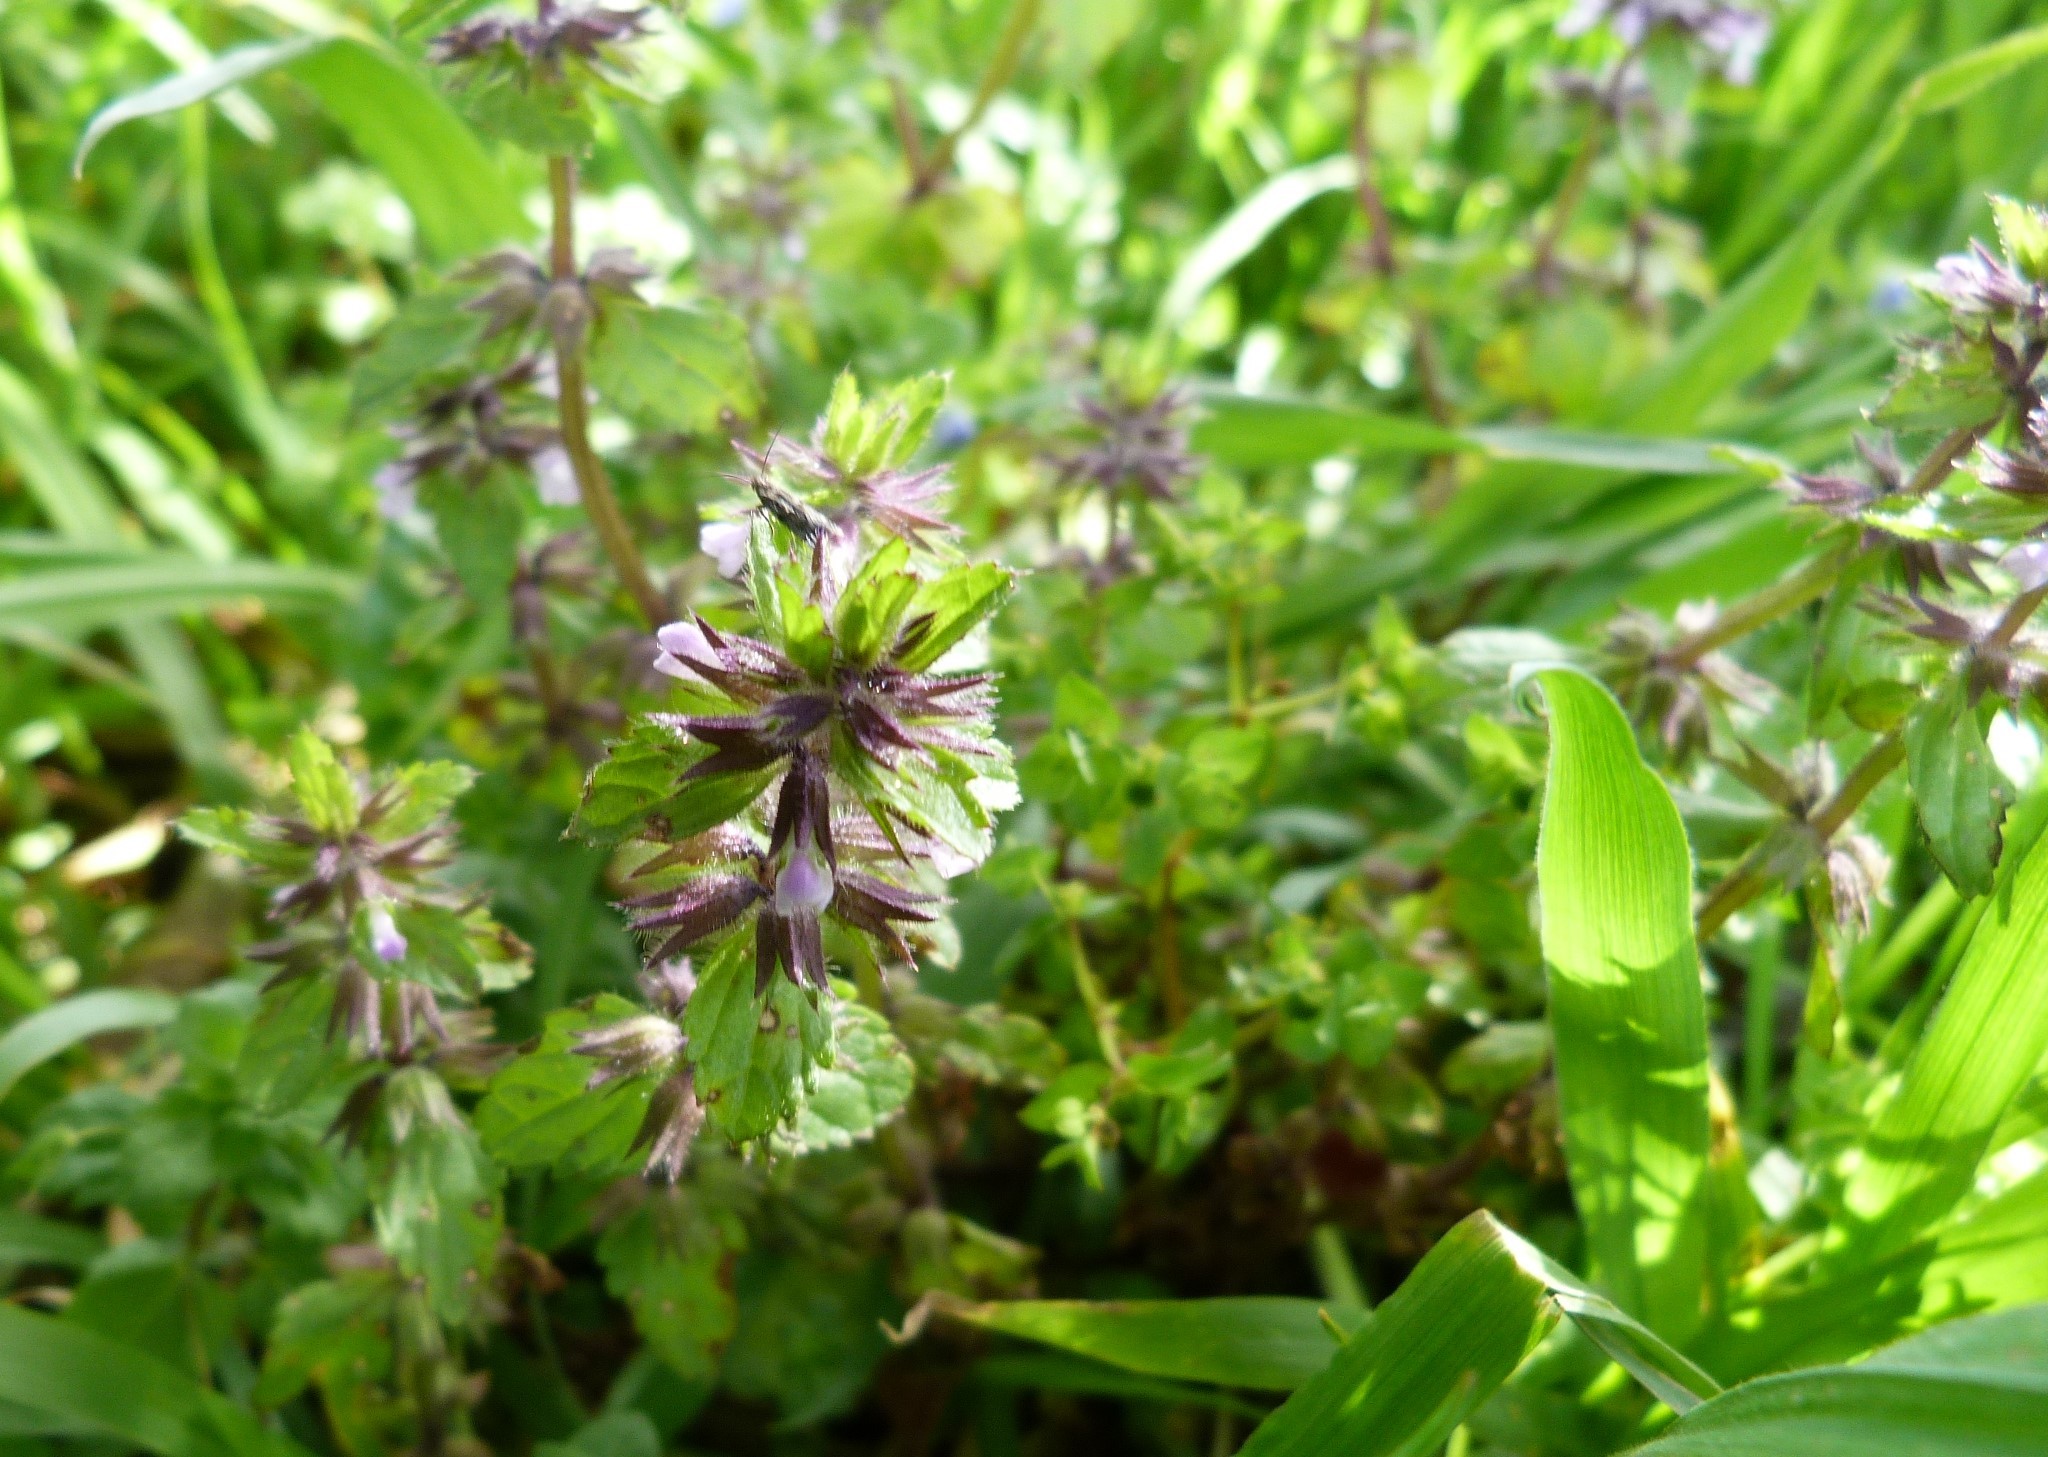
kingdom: Plantae
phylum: Tracheophyta
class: Magnoliopsida
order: Lamiales
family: Lamiaceae
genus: Stachys
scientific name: Stachys arvensis
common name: Field woundwort
